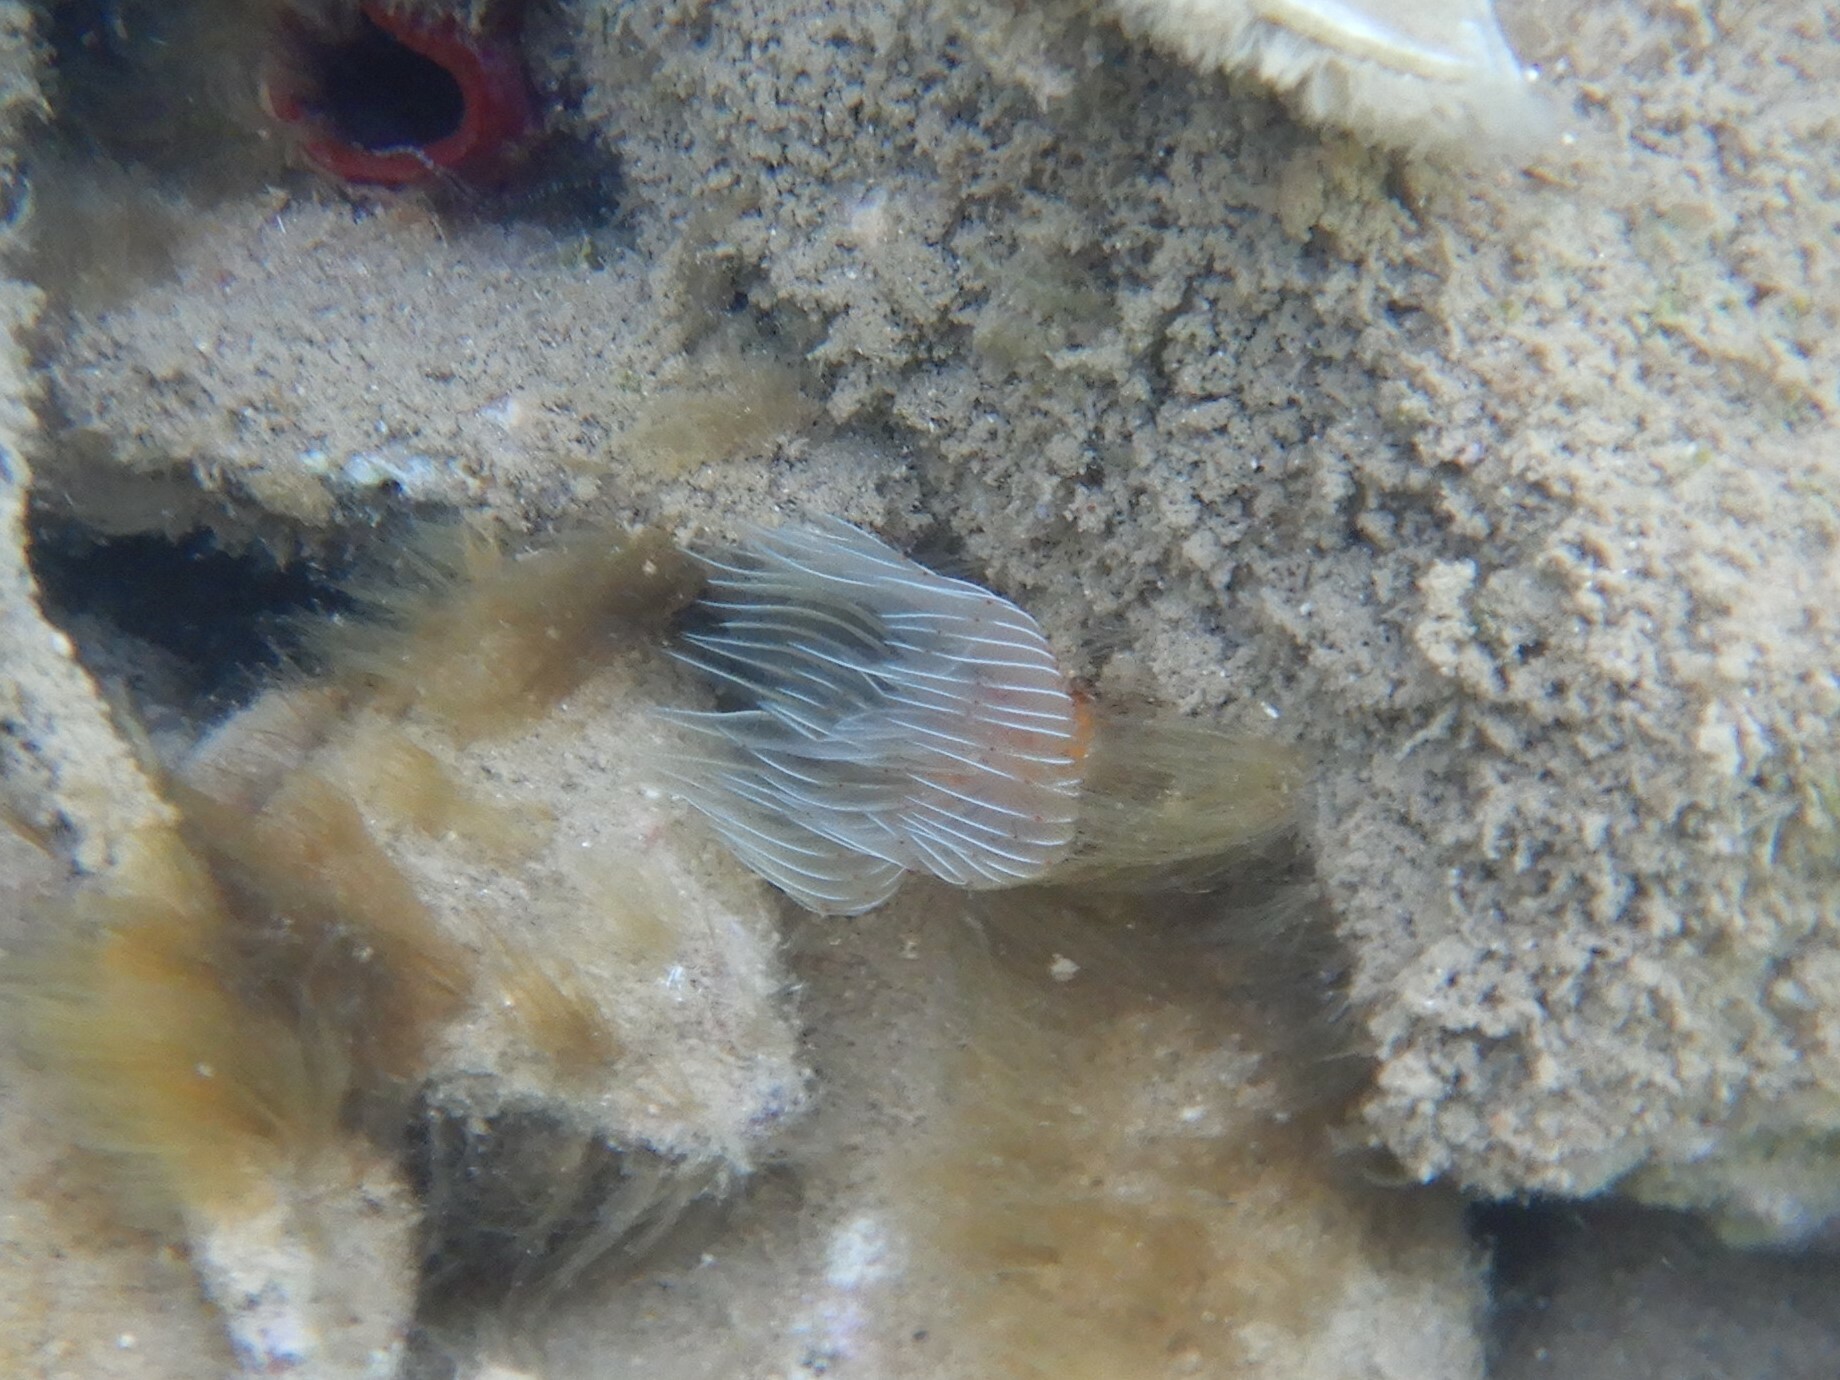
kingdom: Animalia
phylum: Annelida
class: Polychaeta
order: Sabellida
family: Serpulidae
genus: Protula
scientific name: Protula tubularia
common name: Red-spotted horseshoe
